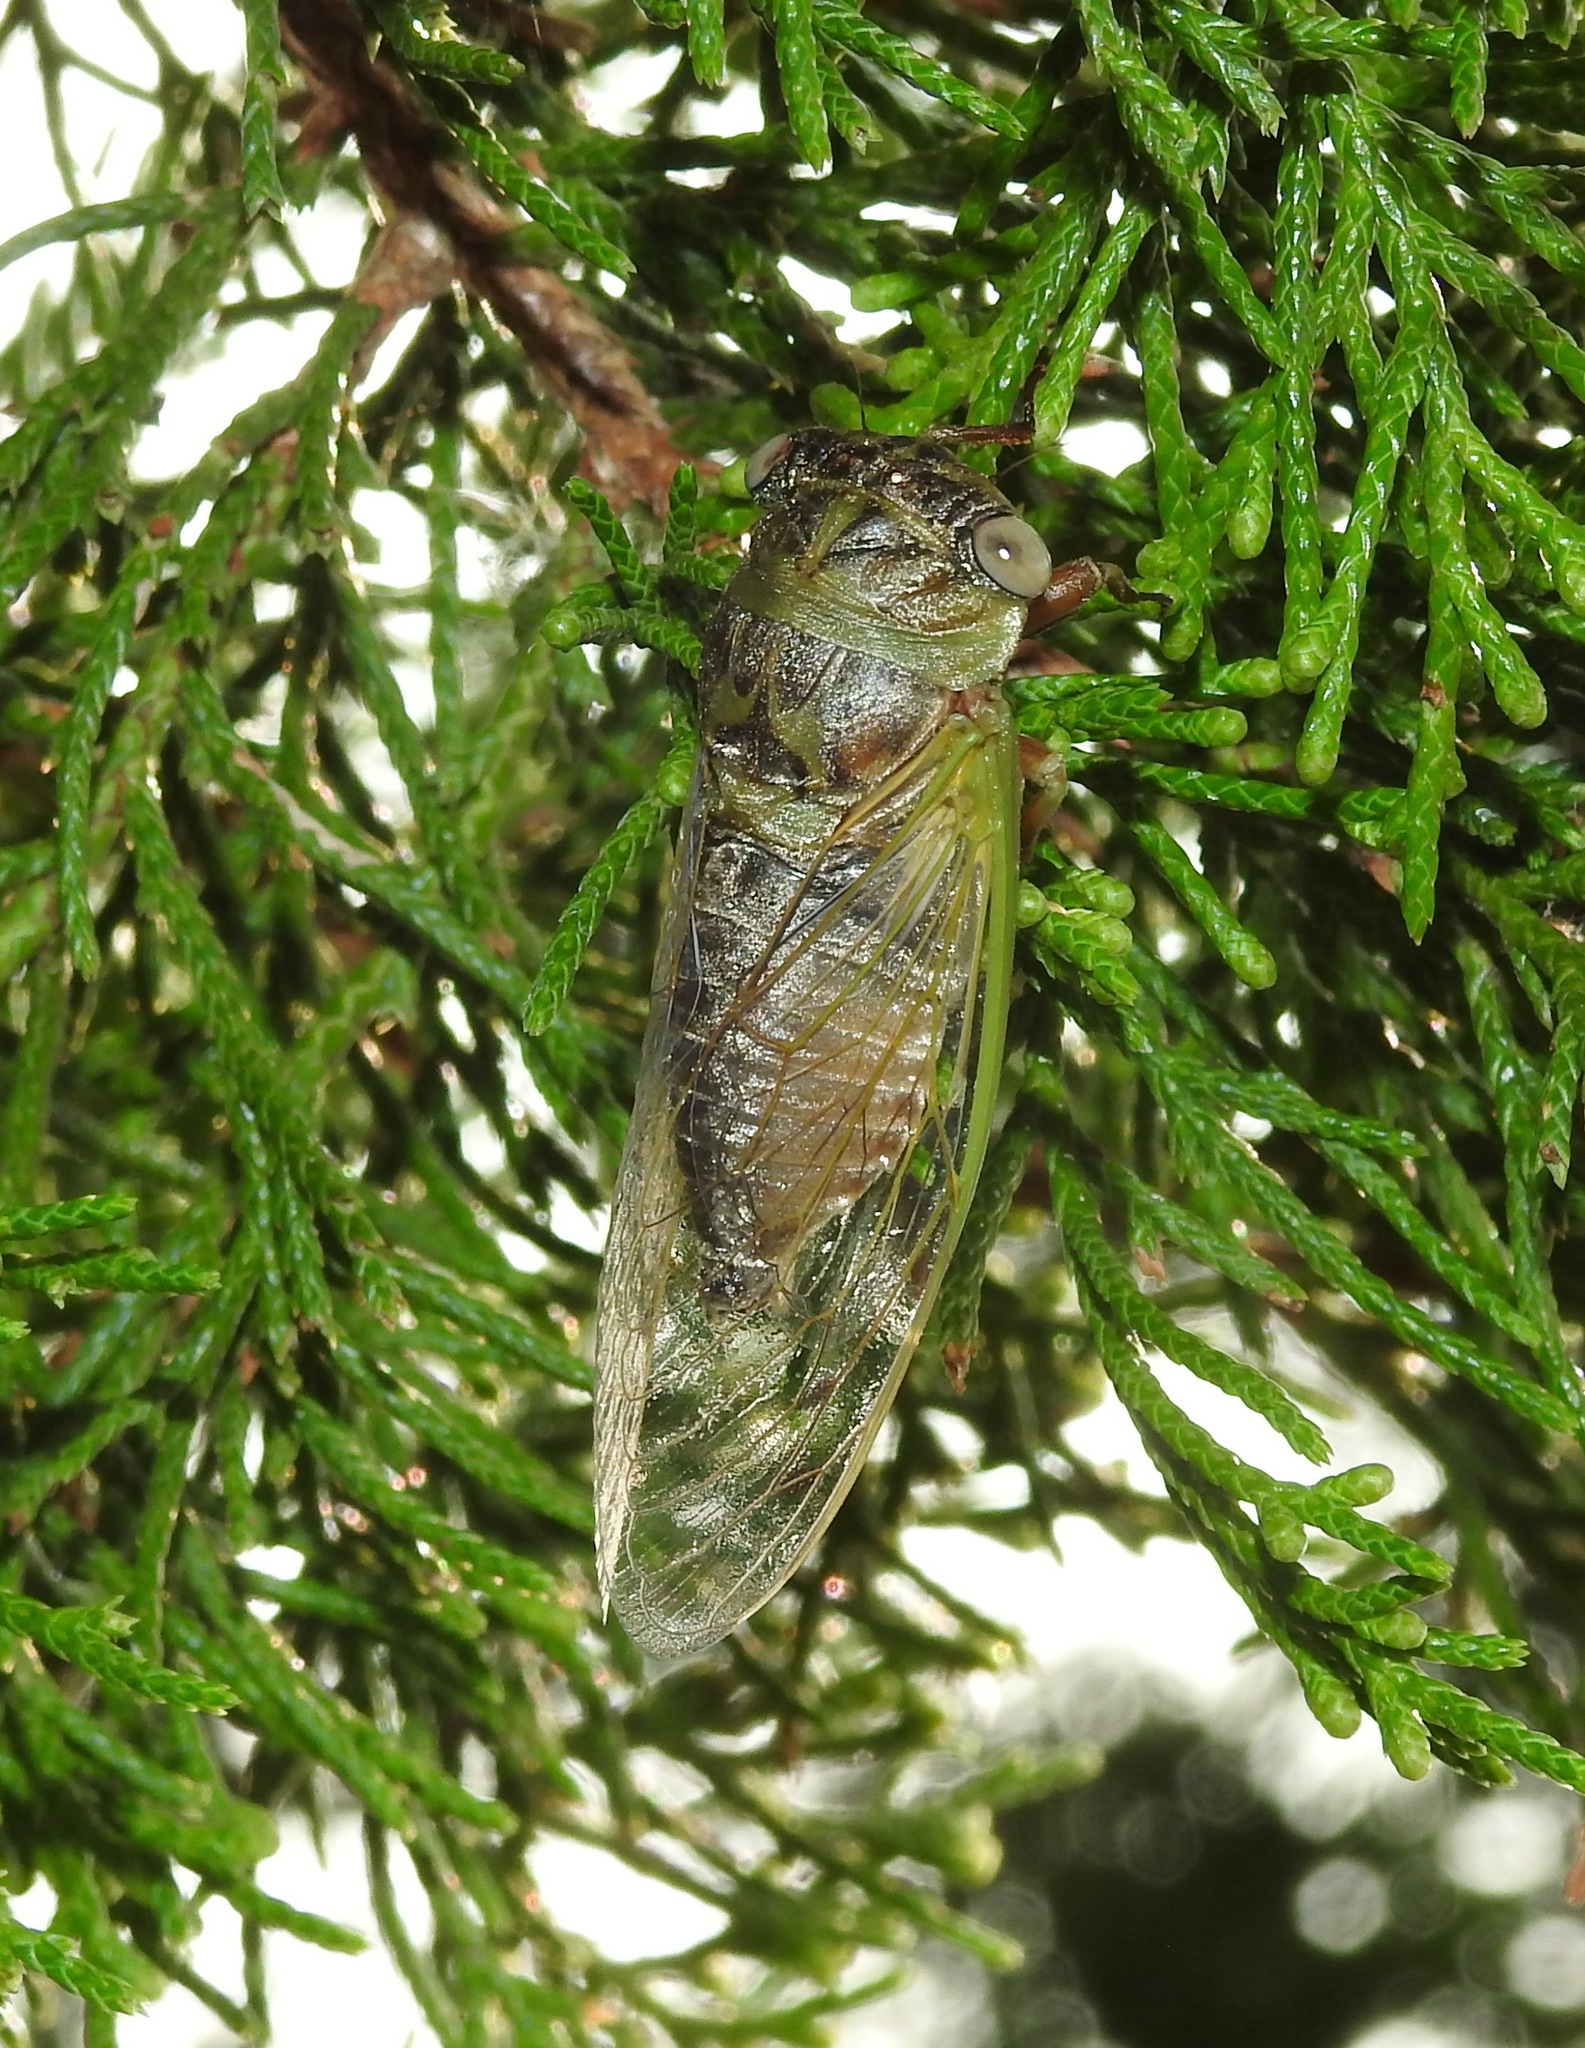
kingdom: Animalia
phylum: Arthropoda
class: Insecta
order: Hemiptera
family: Cicadidae
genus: Neotibicen
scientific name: Neotibicen aurifer
